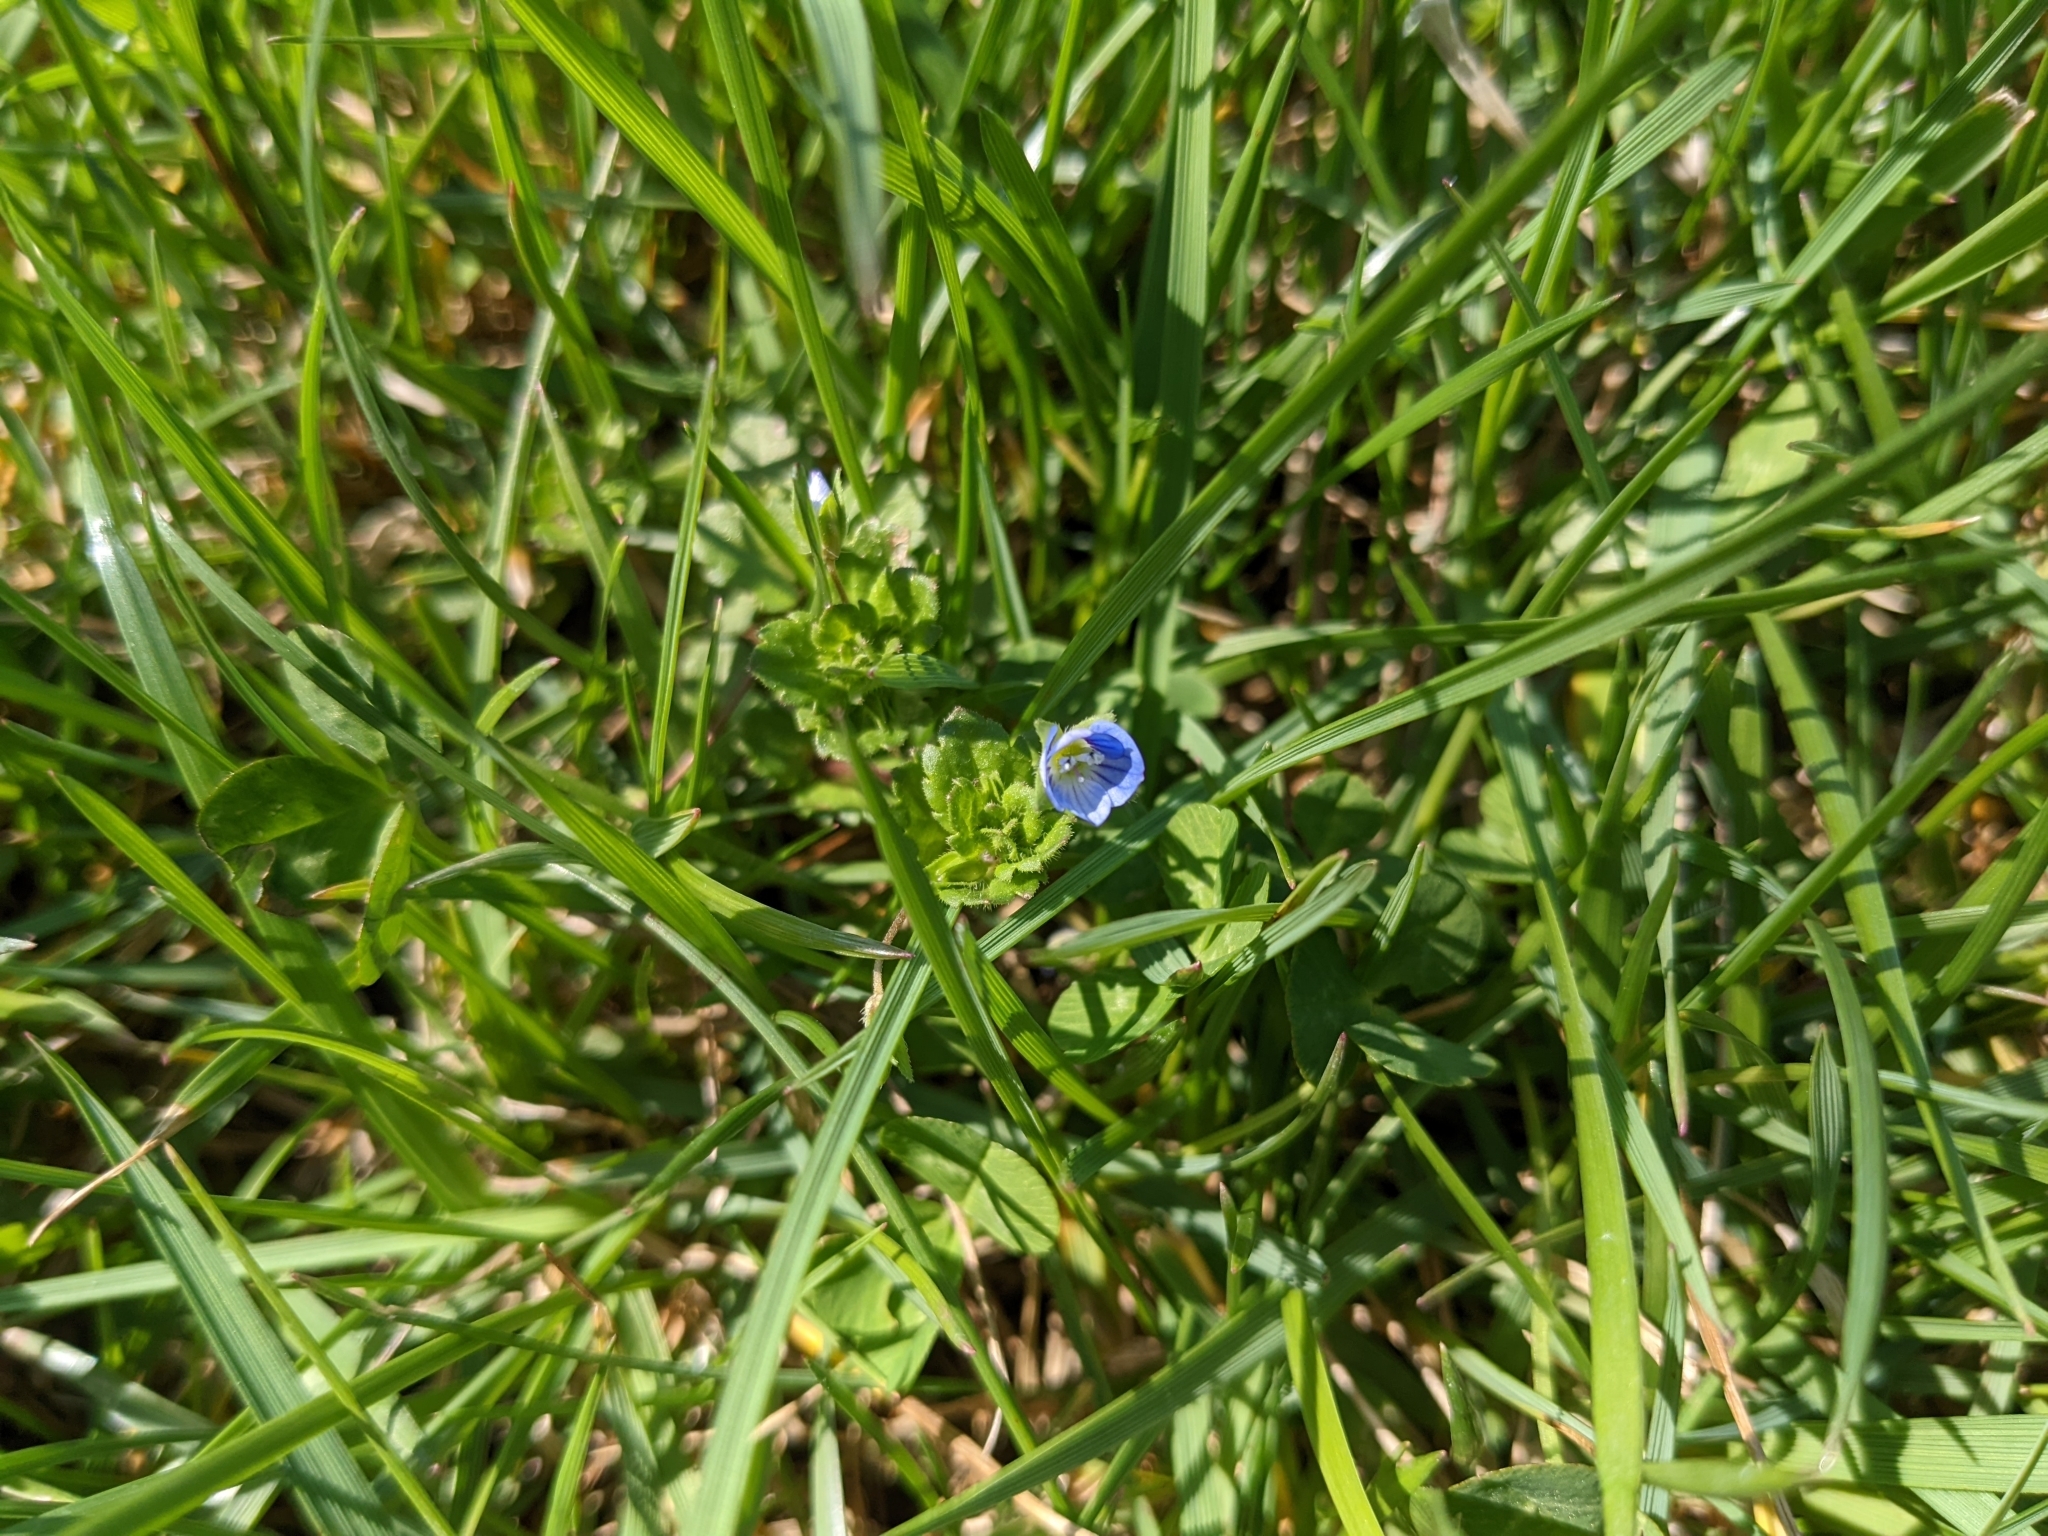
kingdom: Plantae
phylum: Tracheophyta
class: Magnoliopsida
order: Lamiales
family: Plantaginaceae
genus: Veronica
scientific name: Veronica persica
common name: Common field-speedwell
